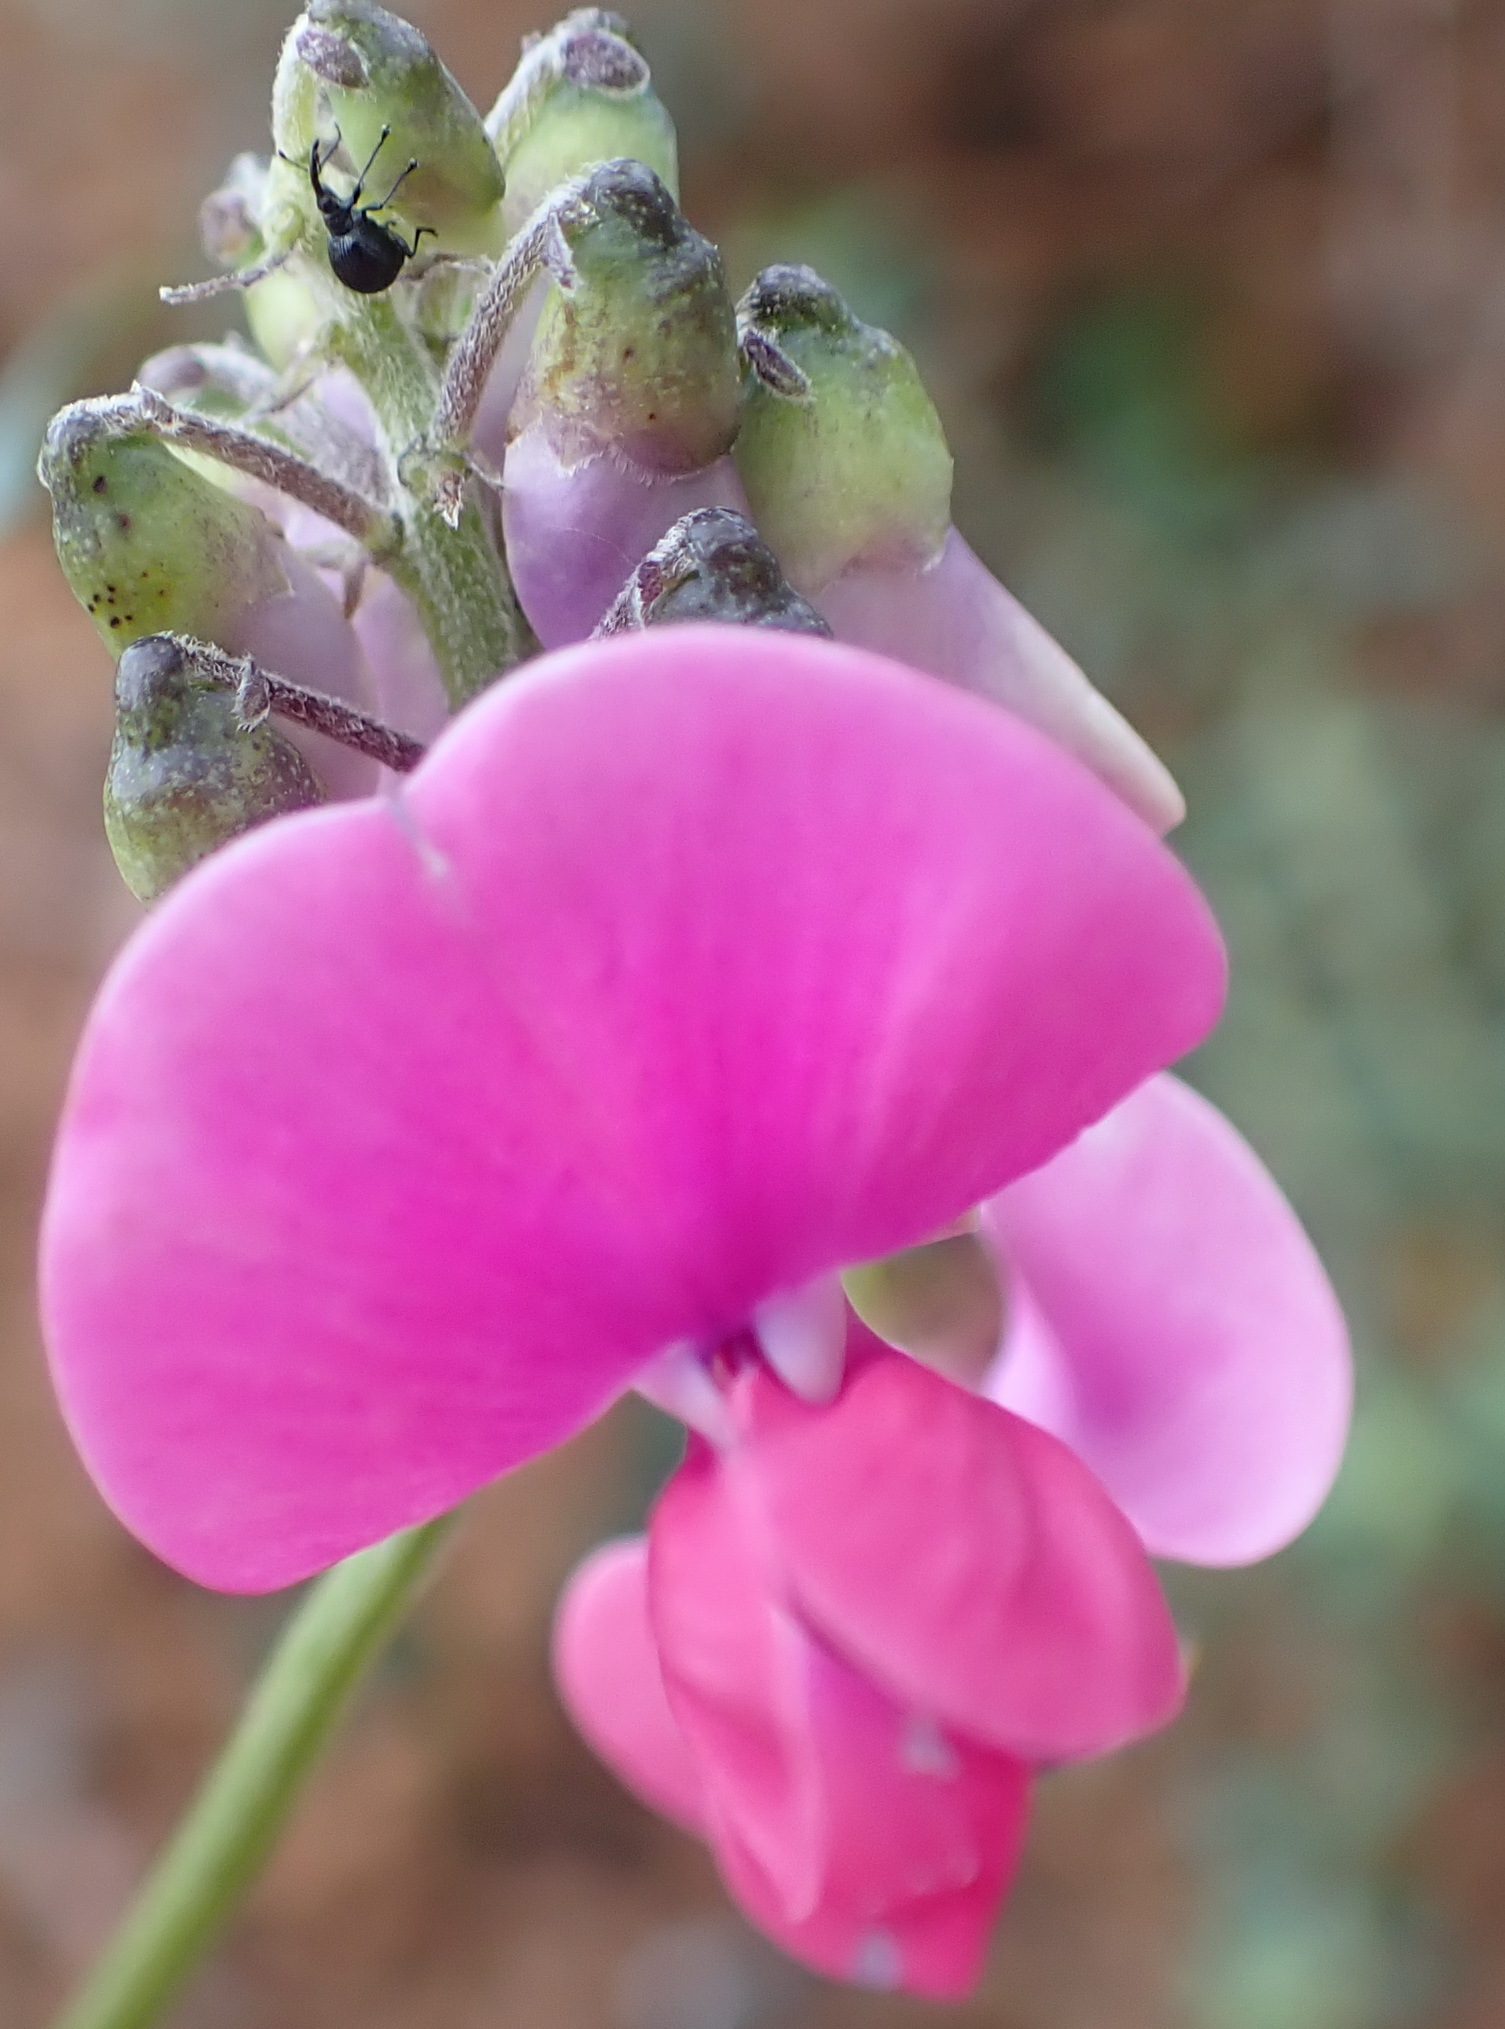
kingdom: Plantae
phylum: Tracheophyta
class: Magnoliopsida
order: Fabales
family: Fabaceae
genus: Dipogon
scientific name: Dipogon lignosus
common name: Okie bean
